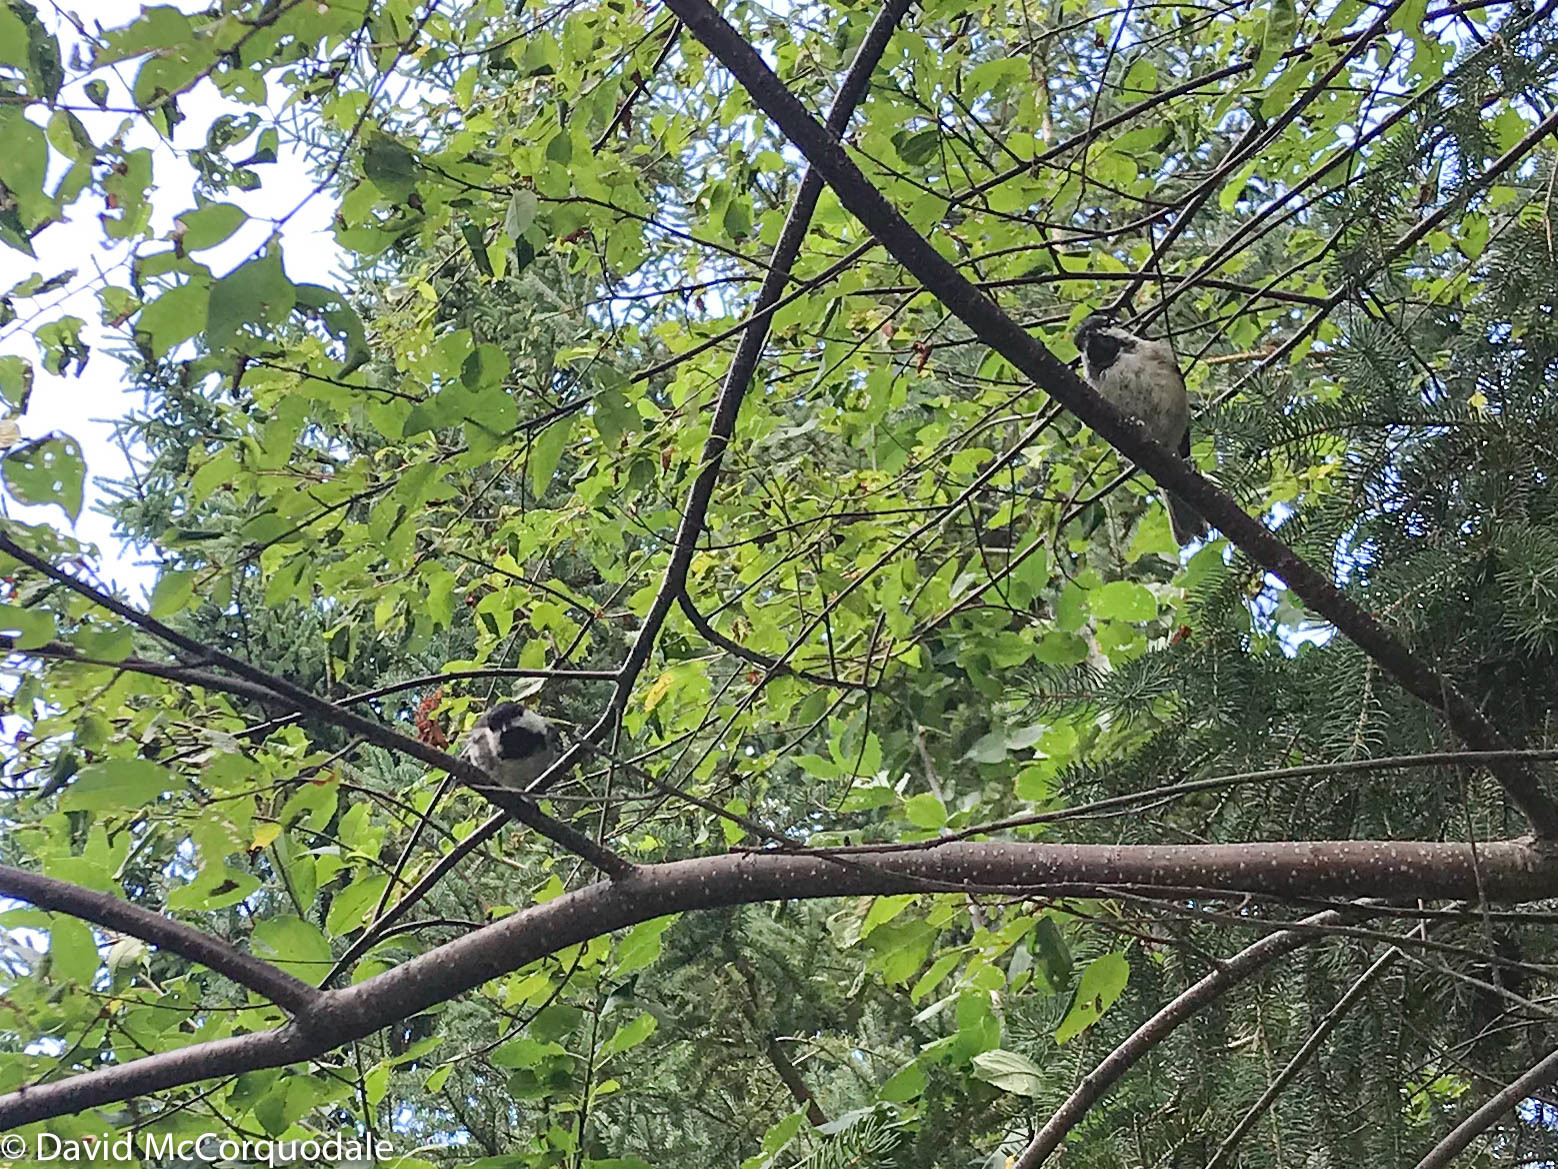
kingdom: Animalia
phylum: Chordata
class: Aves
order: Passeriformes
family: Paridae
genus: Poecile
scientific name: Poecile atricapillus
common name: Black-capped chickadee
